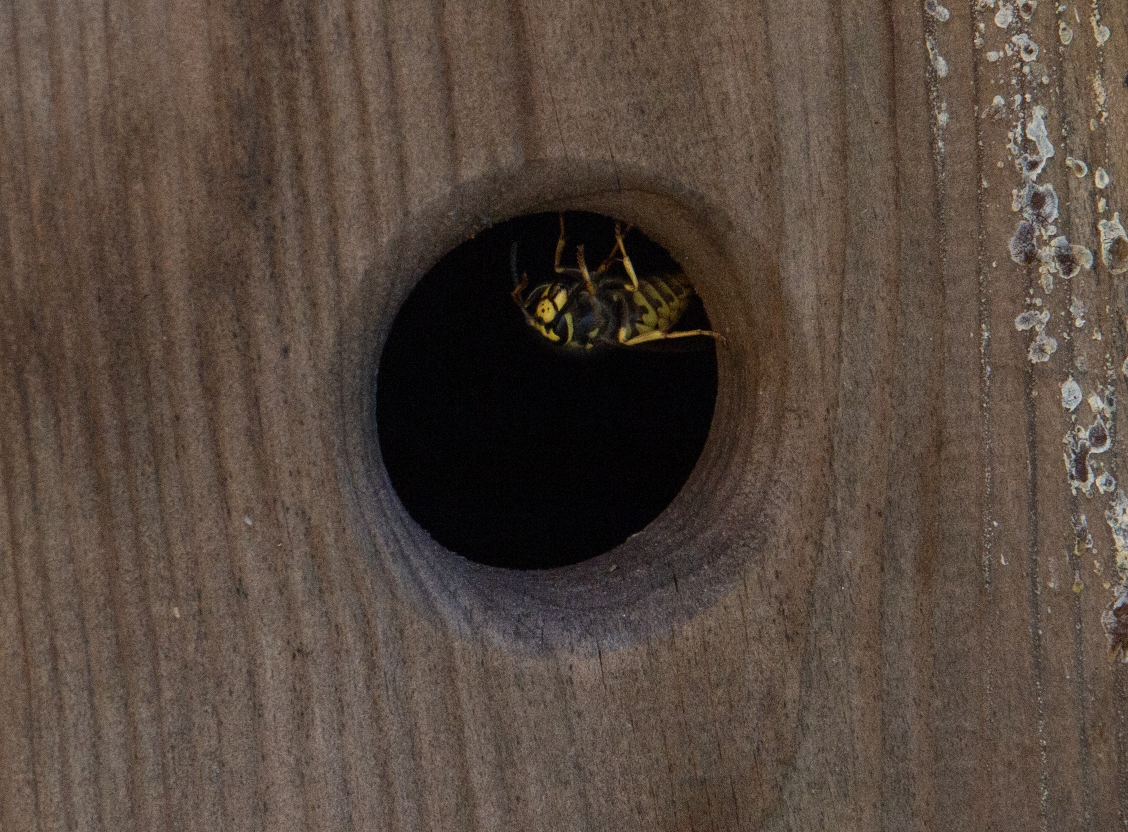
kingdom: Animalia
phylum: Arthropoda
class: Insecta
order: Hymenoptera
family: Vespidae
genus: Vespula
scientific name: Vespula germanica
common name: German wasp
